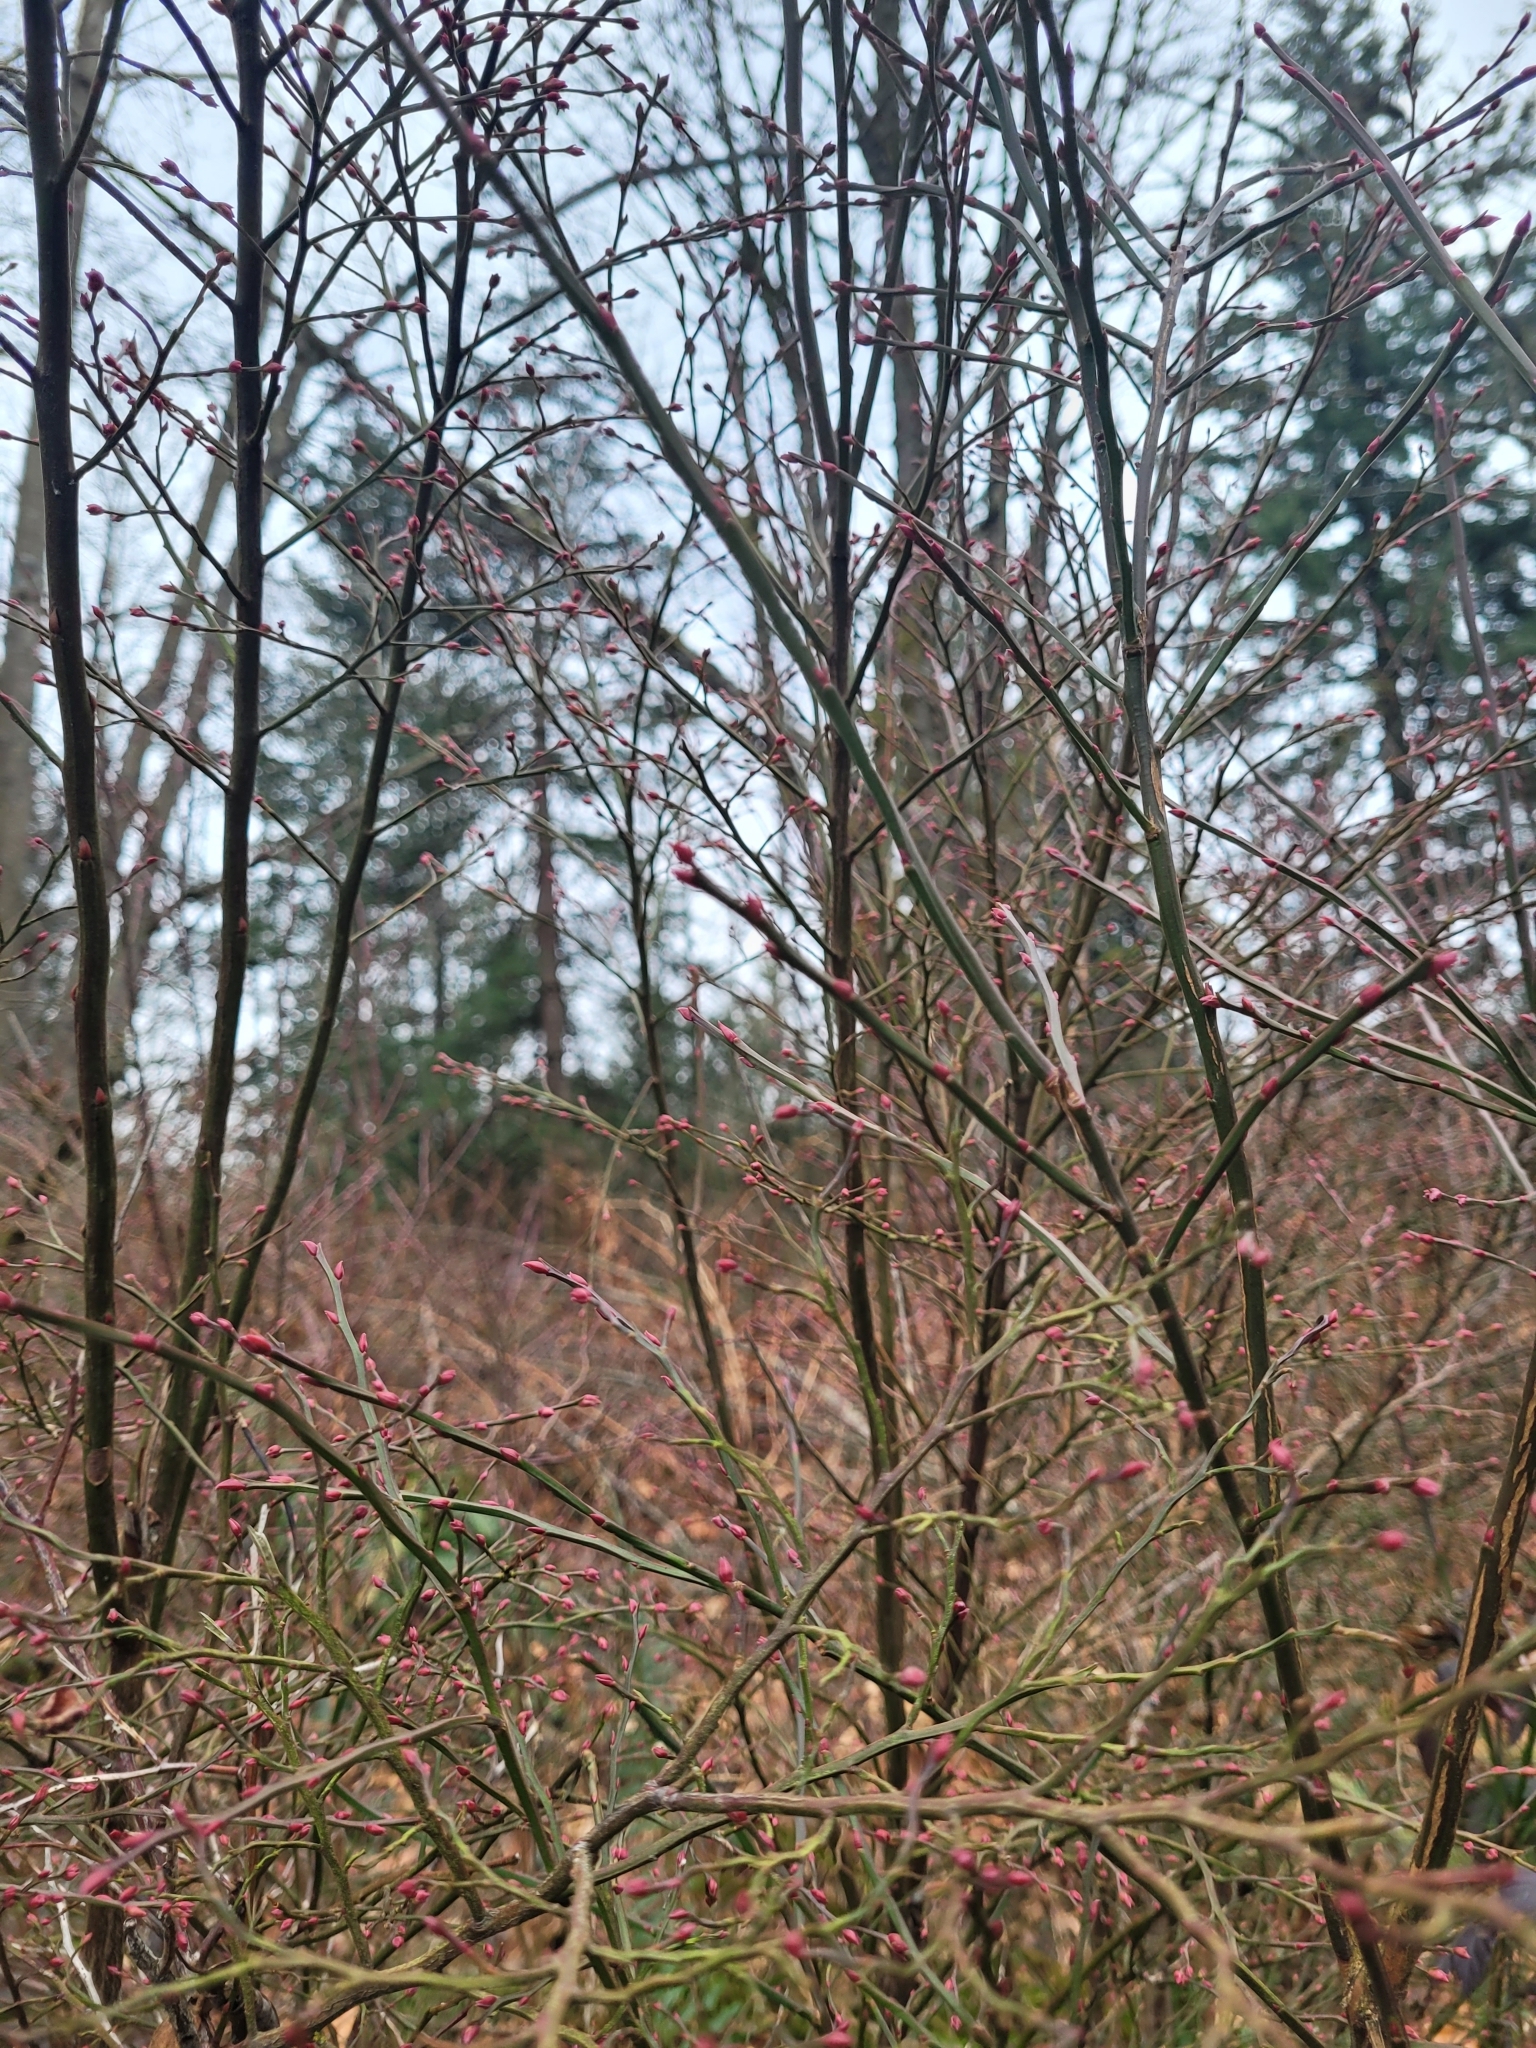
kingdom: Plantae
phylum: Tracheophyta
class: Magnoliopsida
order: Ericales
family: Ericaceae
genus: Vaccinium
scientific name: Vaccinium parvifolium
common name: Red-huckleberry
